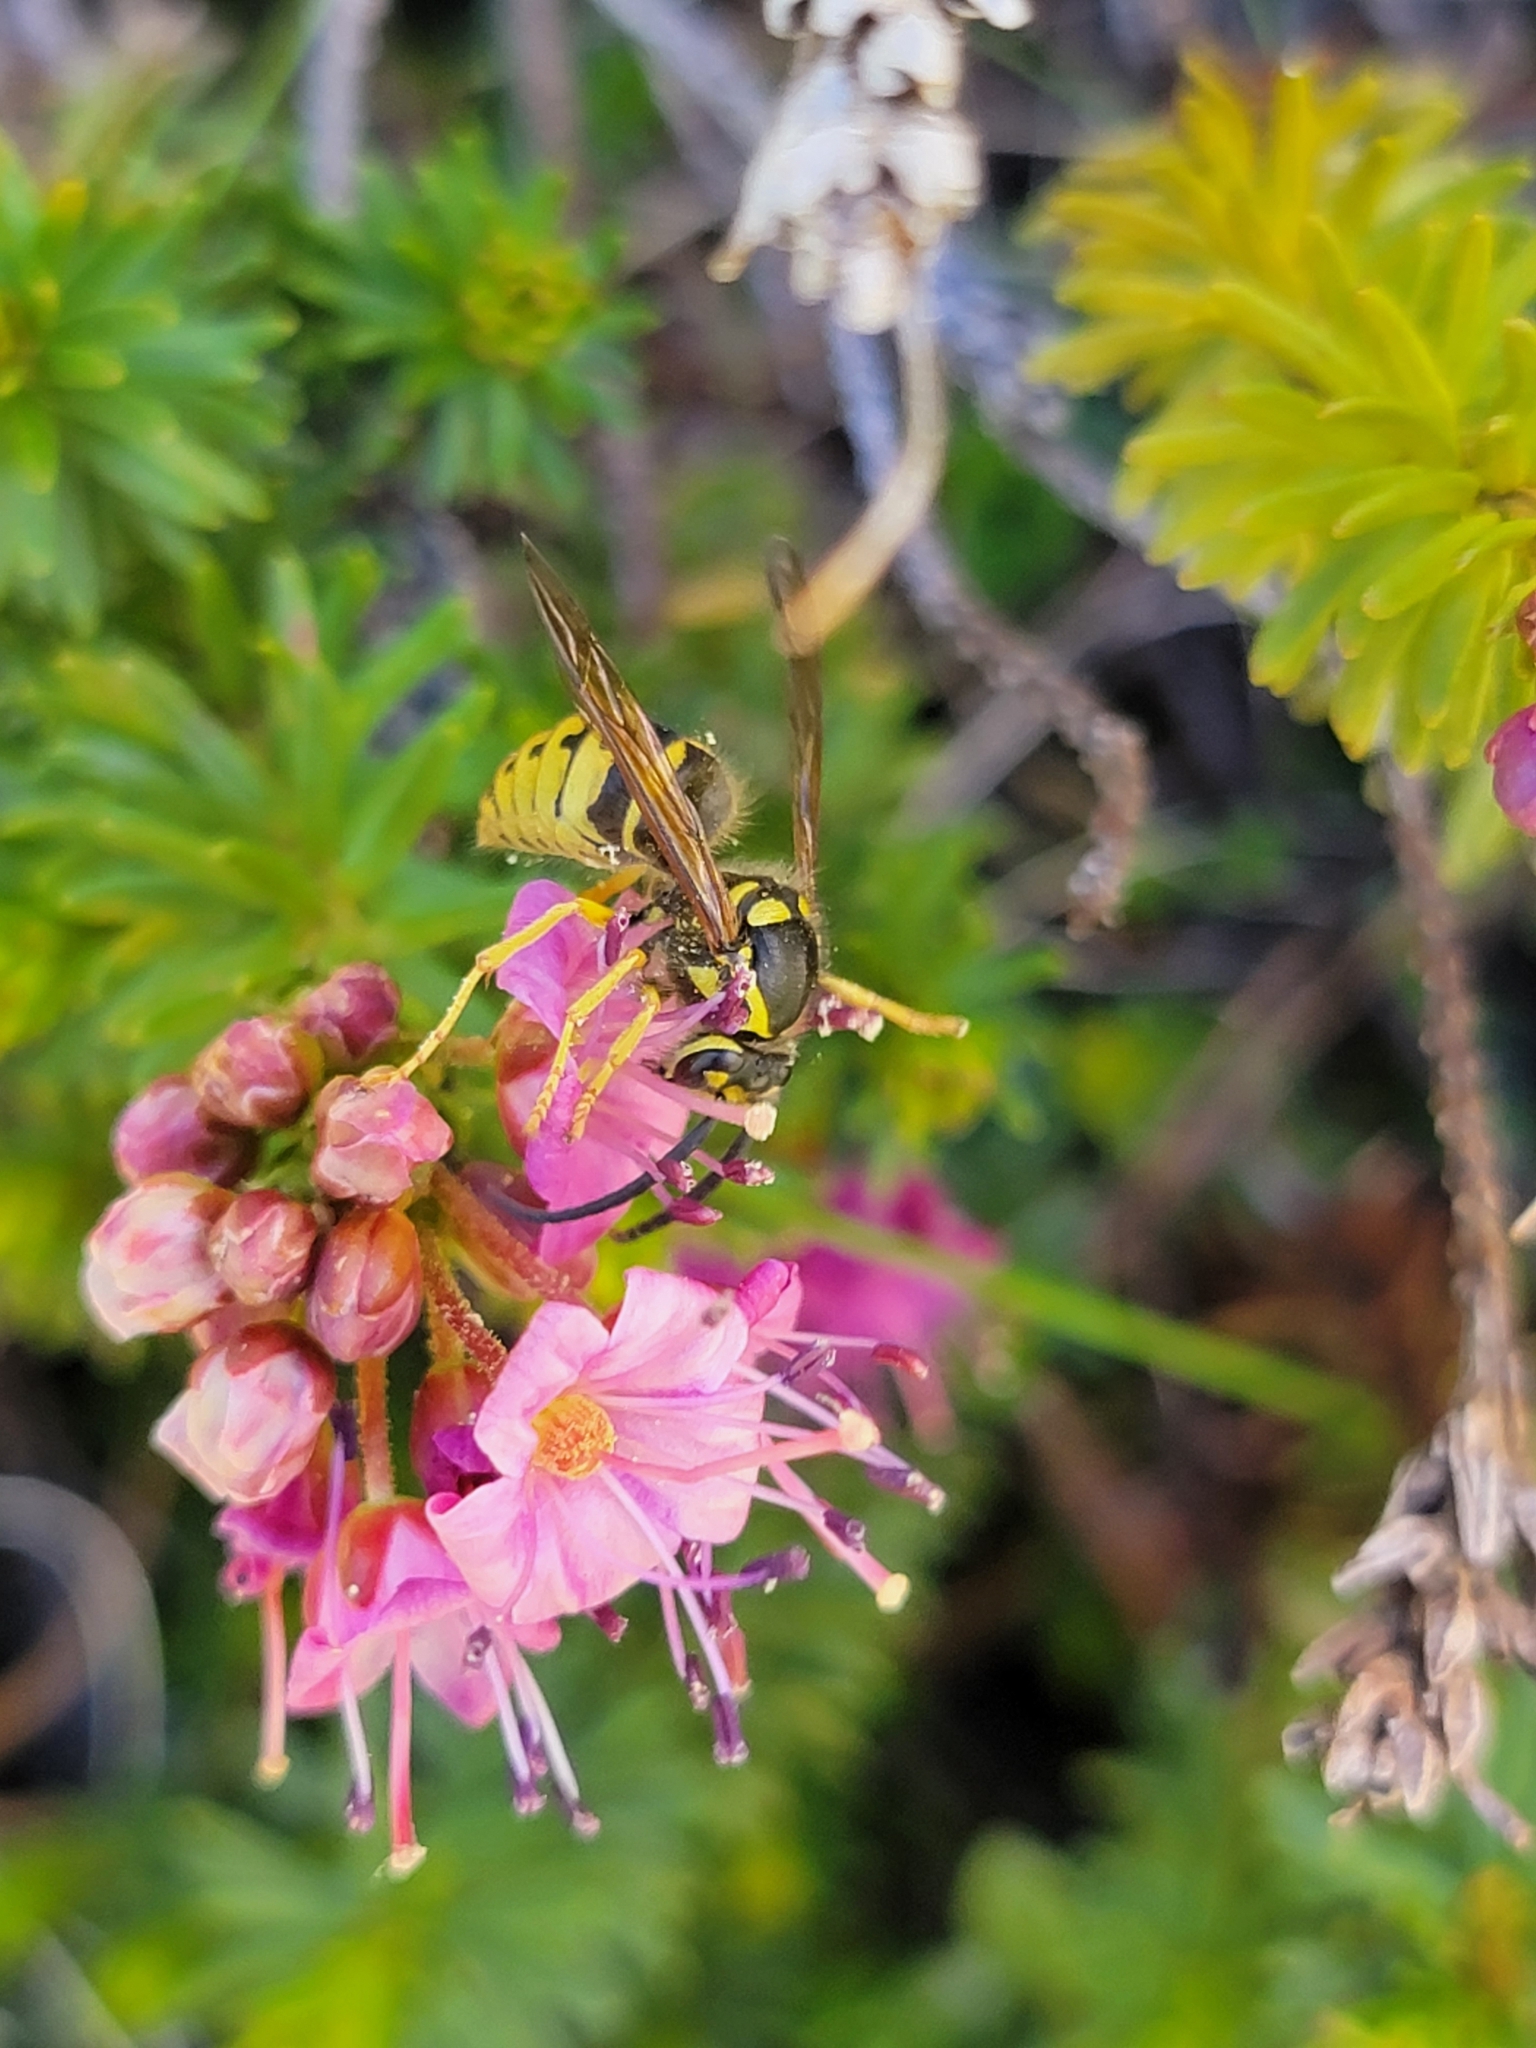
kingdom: Animalia
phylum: Arthropoda
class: Insecta
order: Hymenoptera
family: Vespidae
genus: Dolichovespula
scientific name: Dolichovespula arenaria
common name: Aerial yellowjacket
